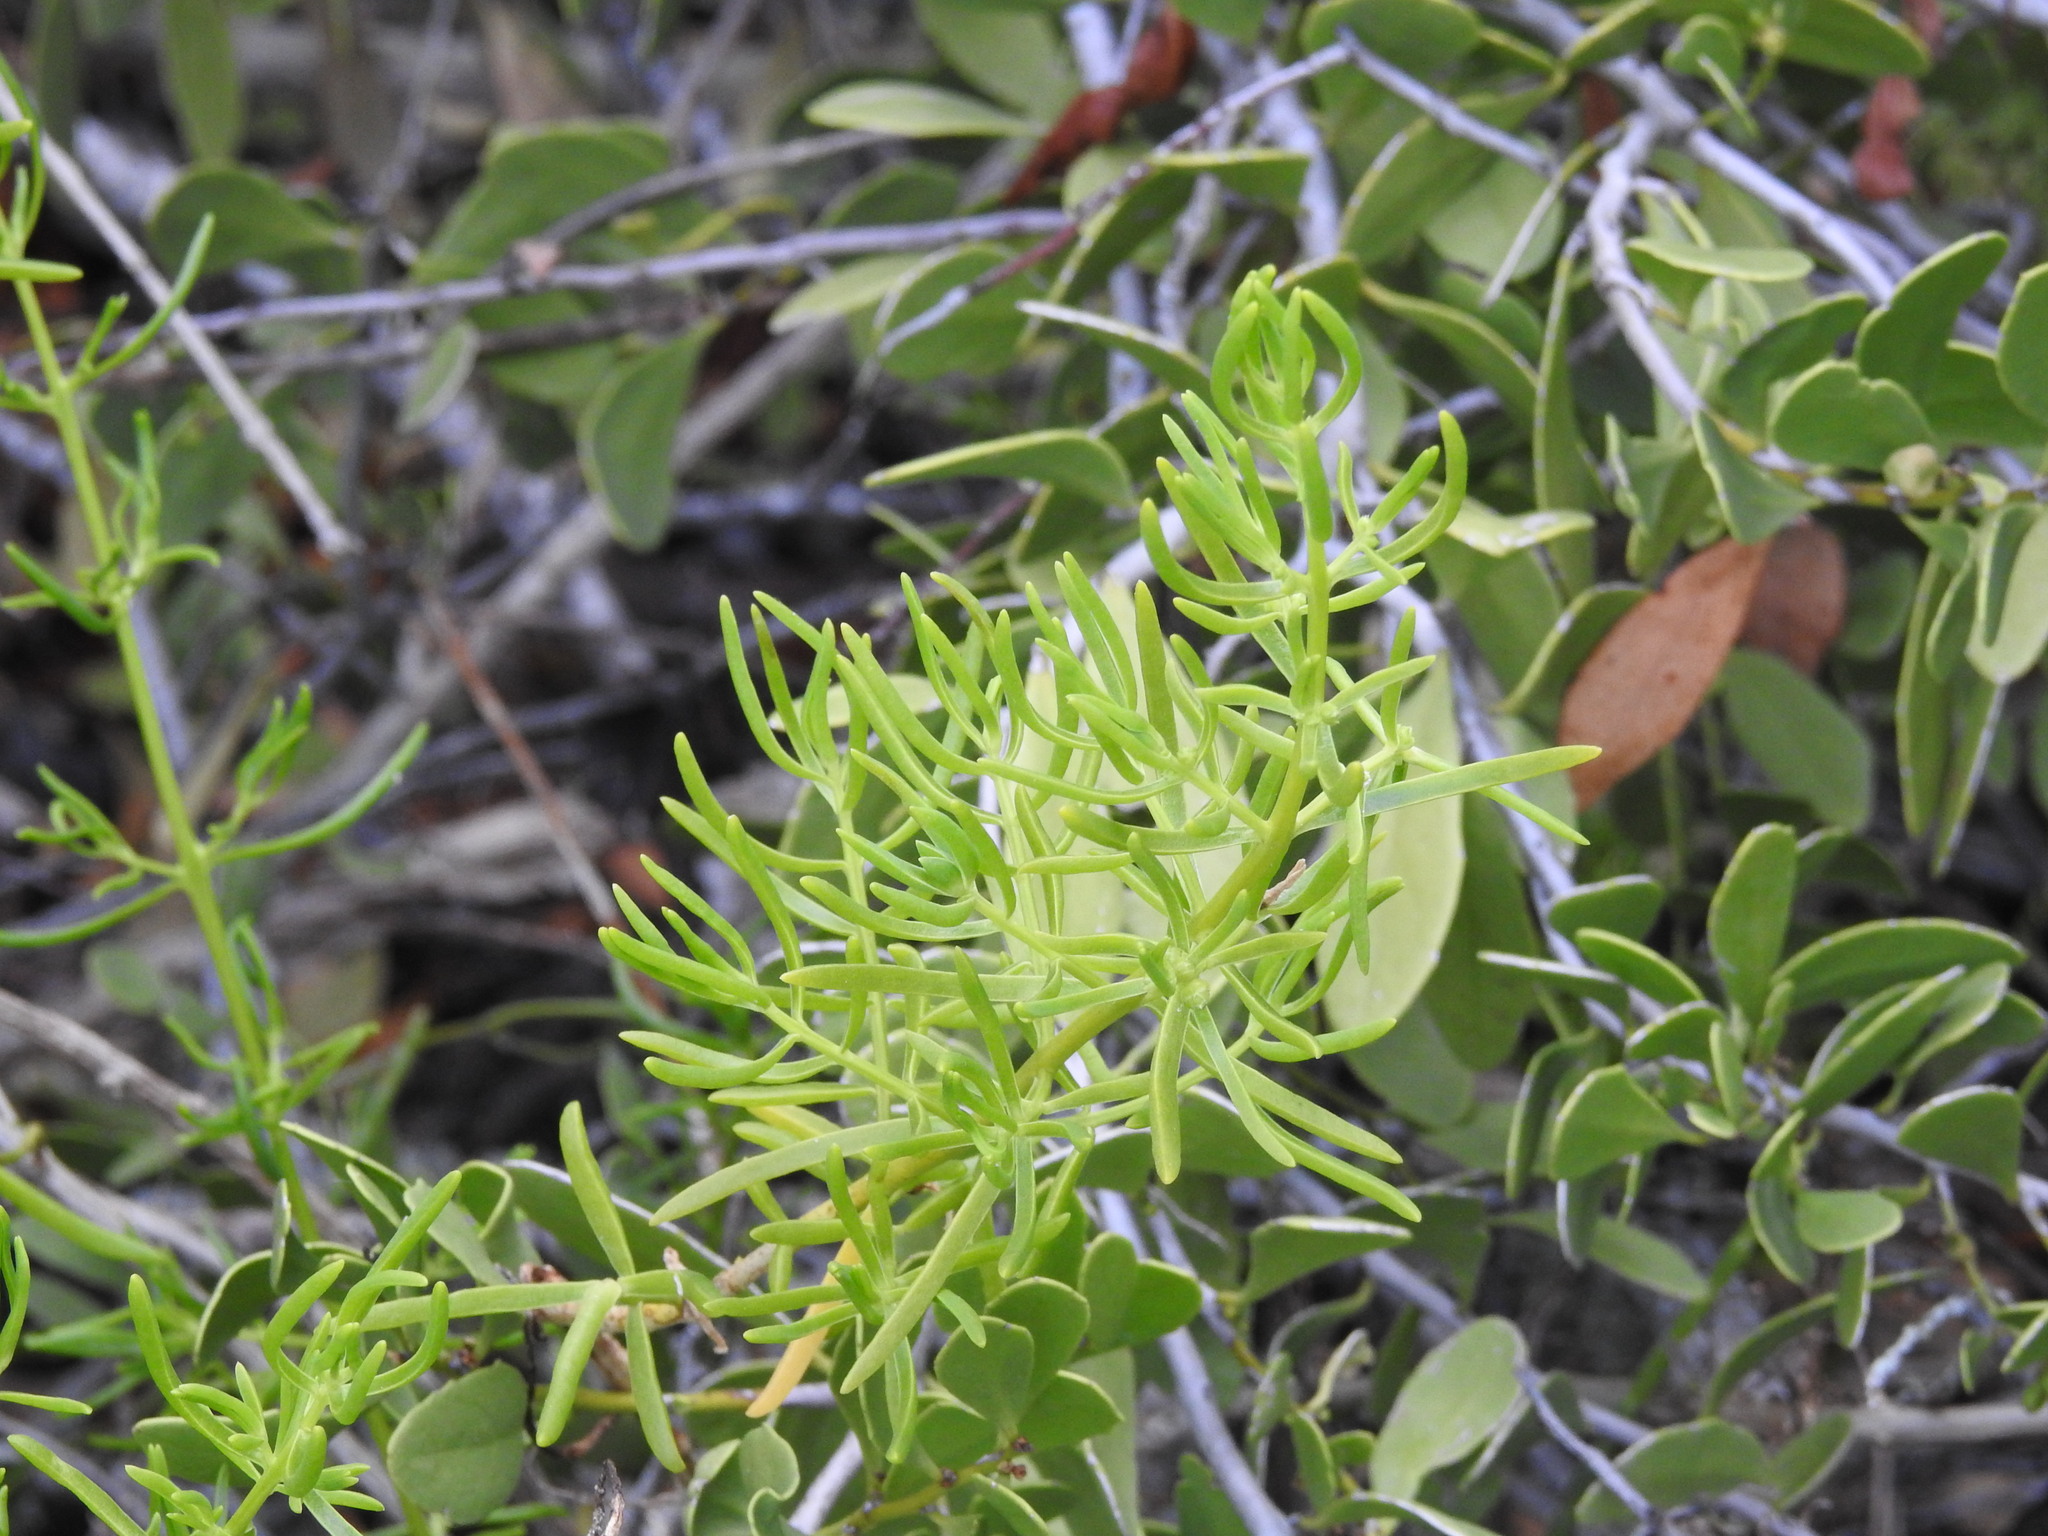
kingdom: Plantae
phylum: Tracheophyta
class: Magnoliopsida
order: Brassicales
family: Bataceae
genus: Batis
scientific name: Batis maritima
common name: Turtleweed
